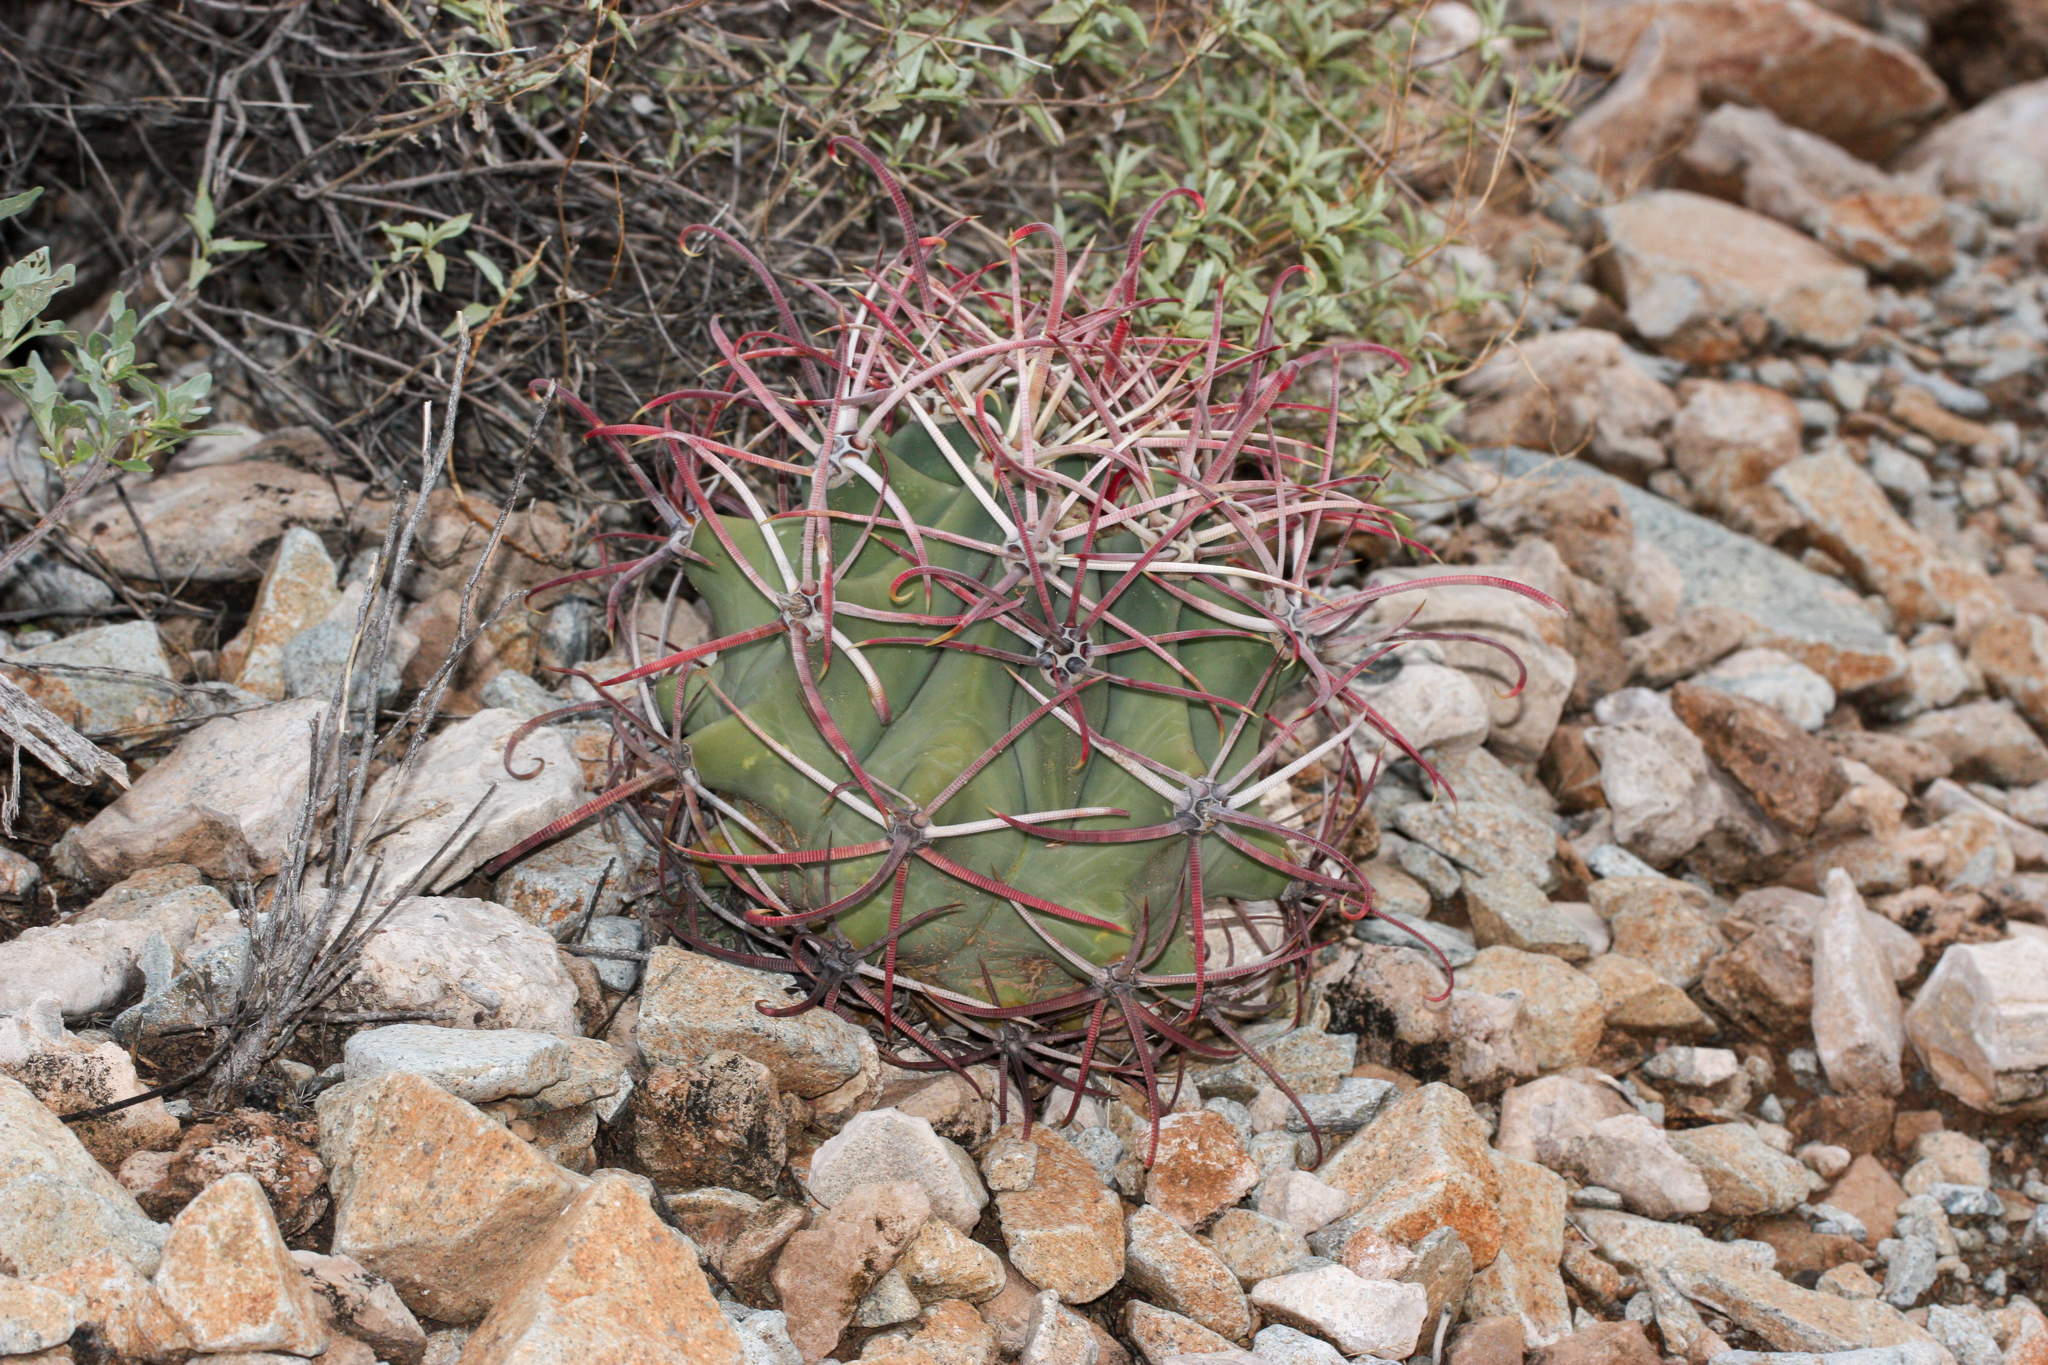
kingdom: Plantae
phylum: Tracheophyta
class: Magnoliopsida
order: Caryophyllales
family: Cactaceae
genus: Ferocactus
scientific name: Ferocactus emoryi
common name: Emory's barrel cactus
